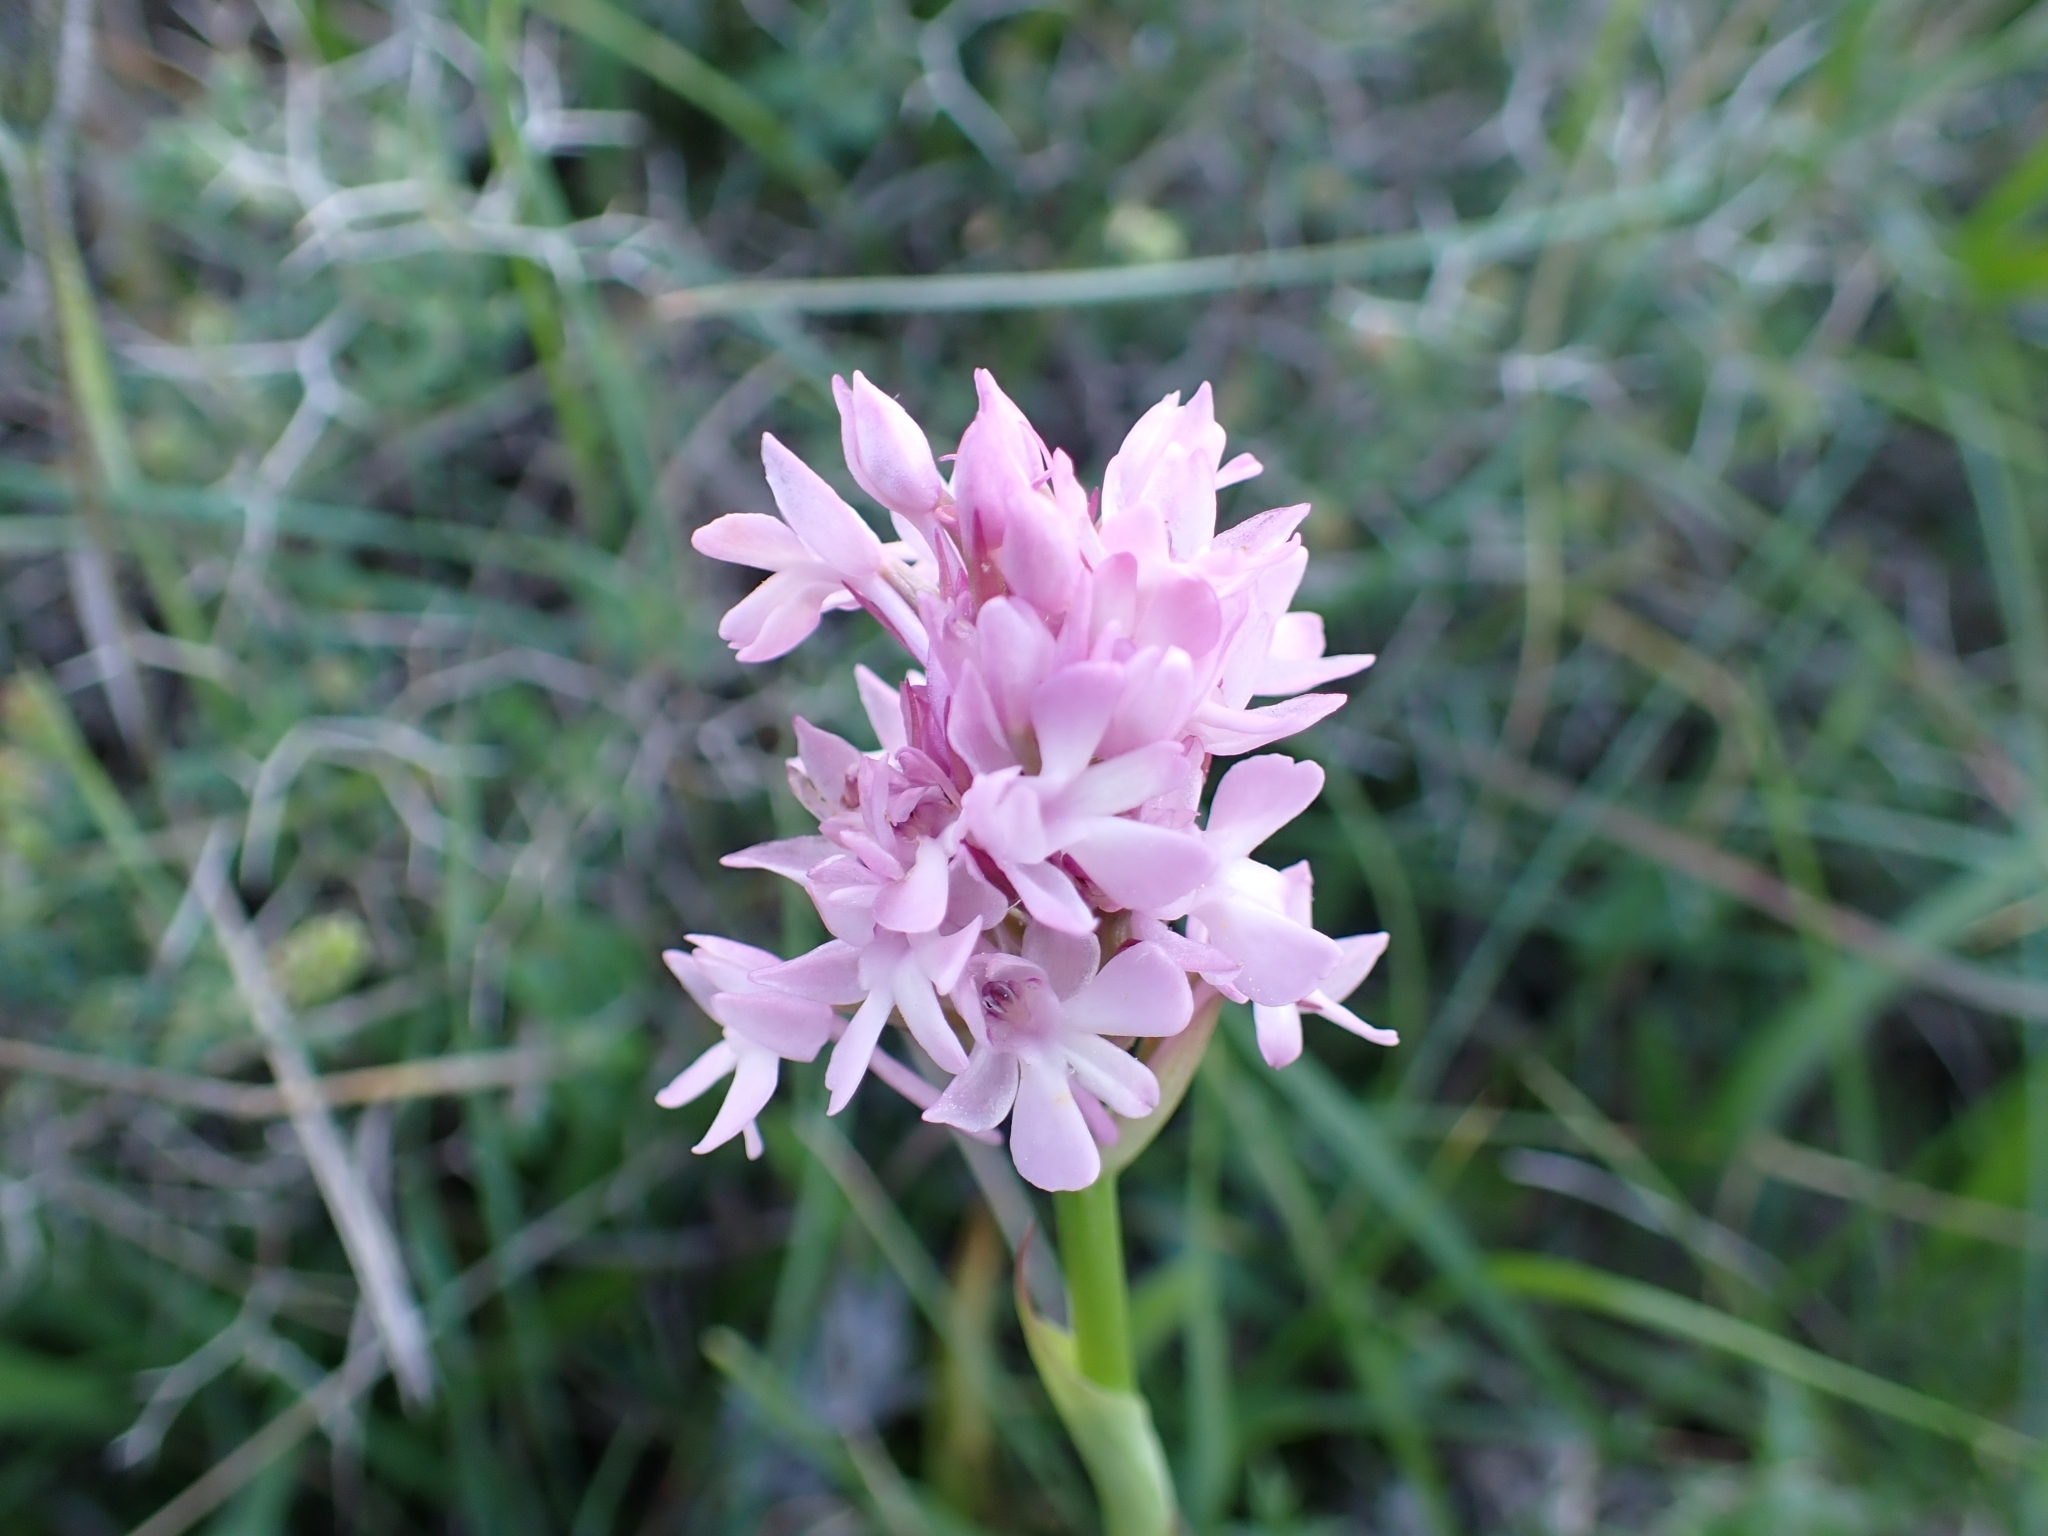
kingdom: Plantae
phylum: Tracheophyta
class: Liliopsida
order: Asparagales
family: Orchidaceae
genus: Anacamptis
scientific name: Anacamptis pyramidalis
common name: Pyramidal orchid
